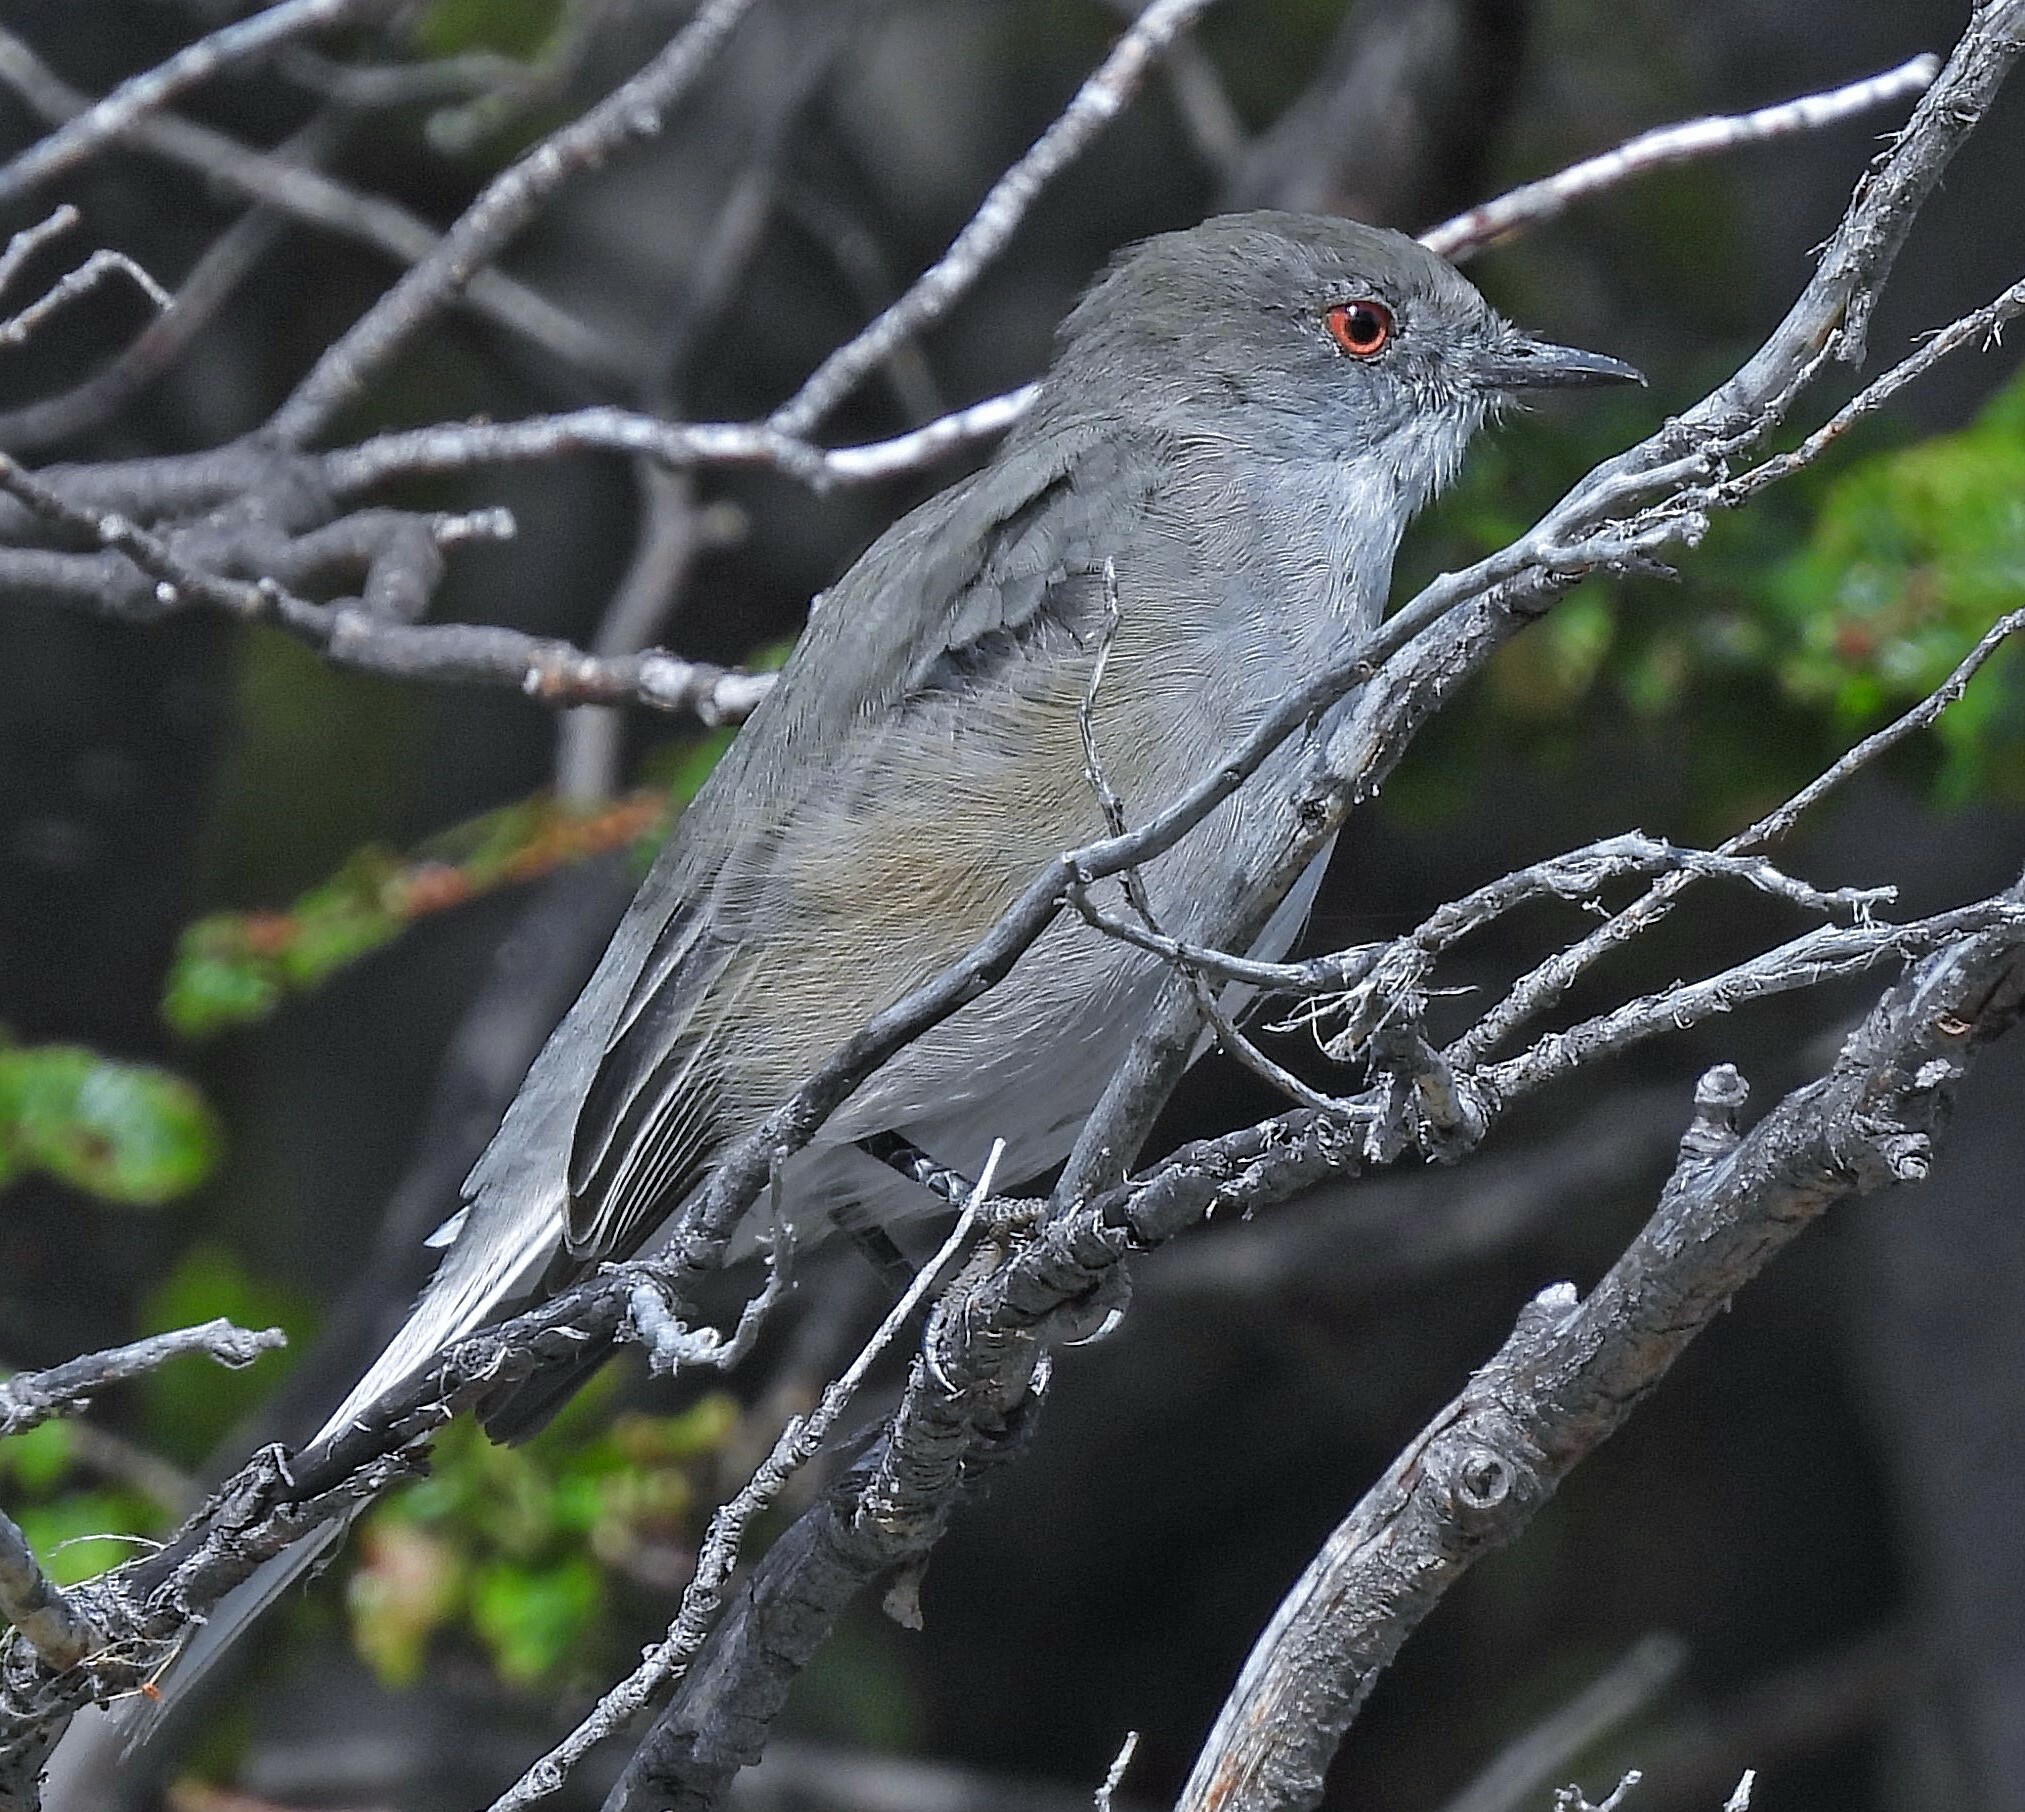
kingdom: Animalia
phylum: Chordata
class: Aves
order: Passeriformes
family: Tyrannidae
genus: Xolmis
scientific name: Xolmis pyrope
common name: Fire-eyed diucon
